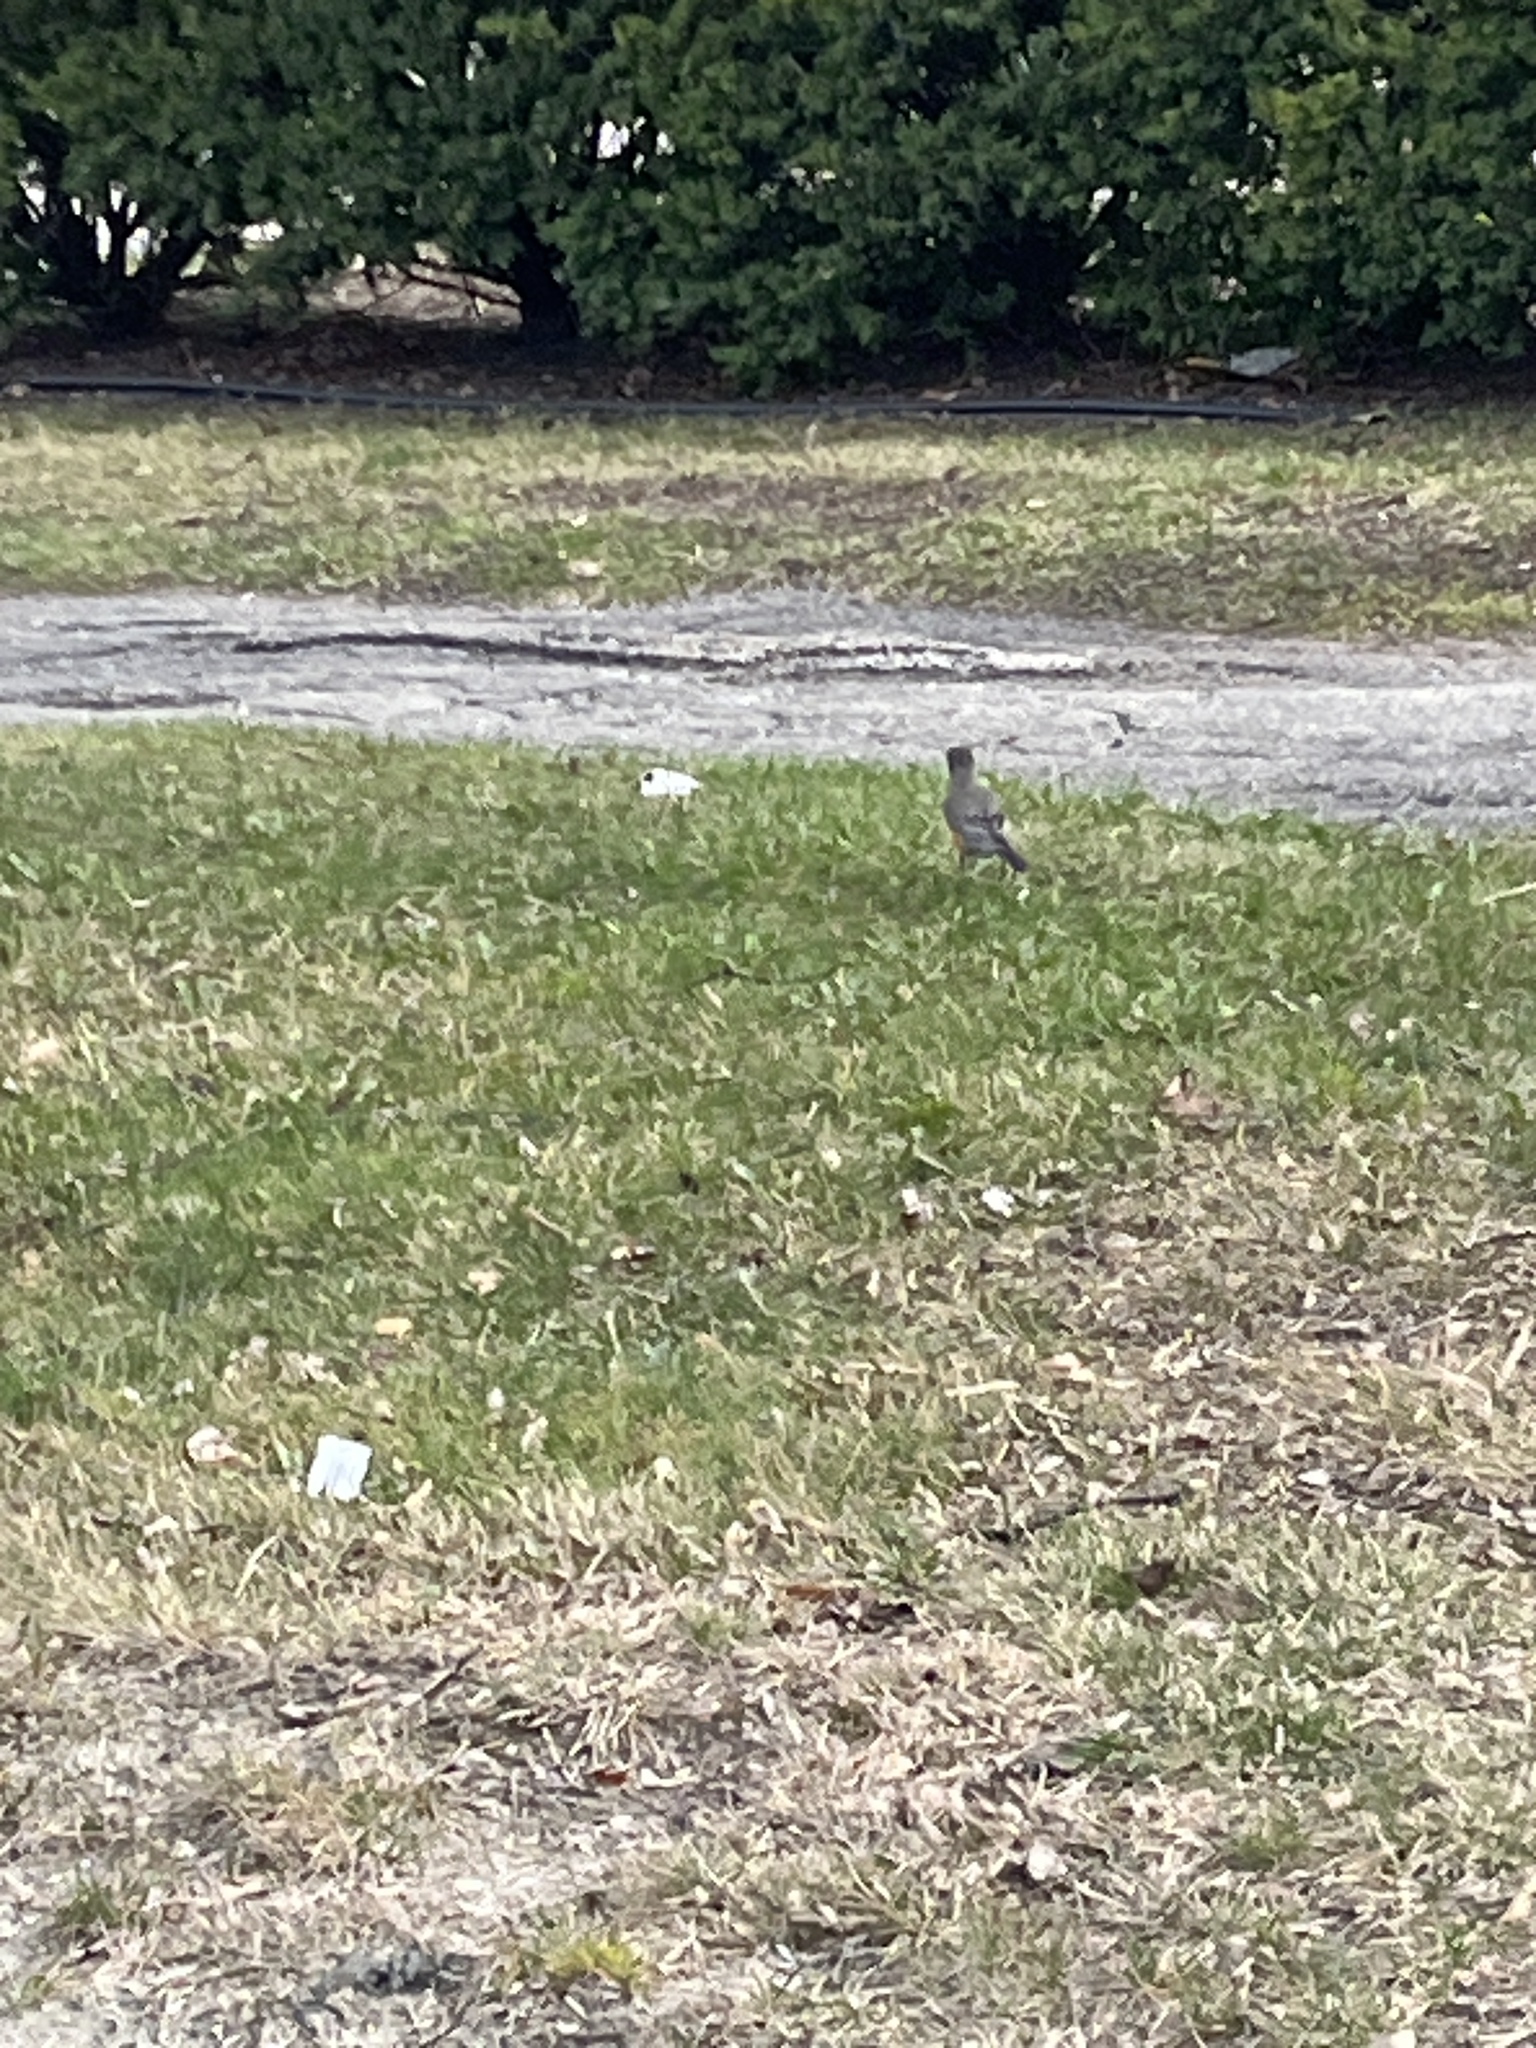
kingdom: Animalia
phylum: Chordata
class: Aves
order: Passeriformes
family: Turdidae
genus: Turdus
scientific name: Turdus migratorius
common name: American robin
